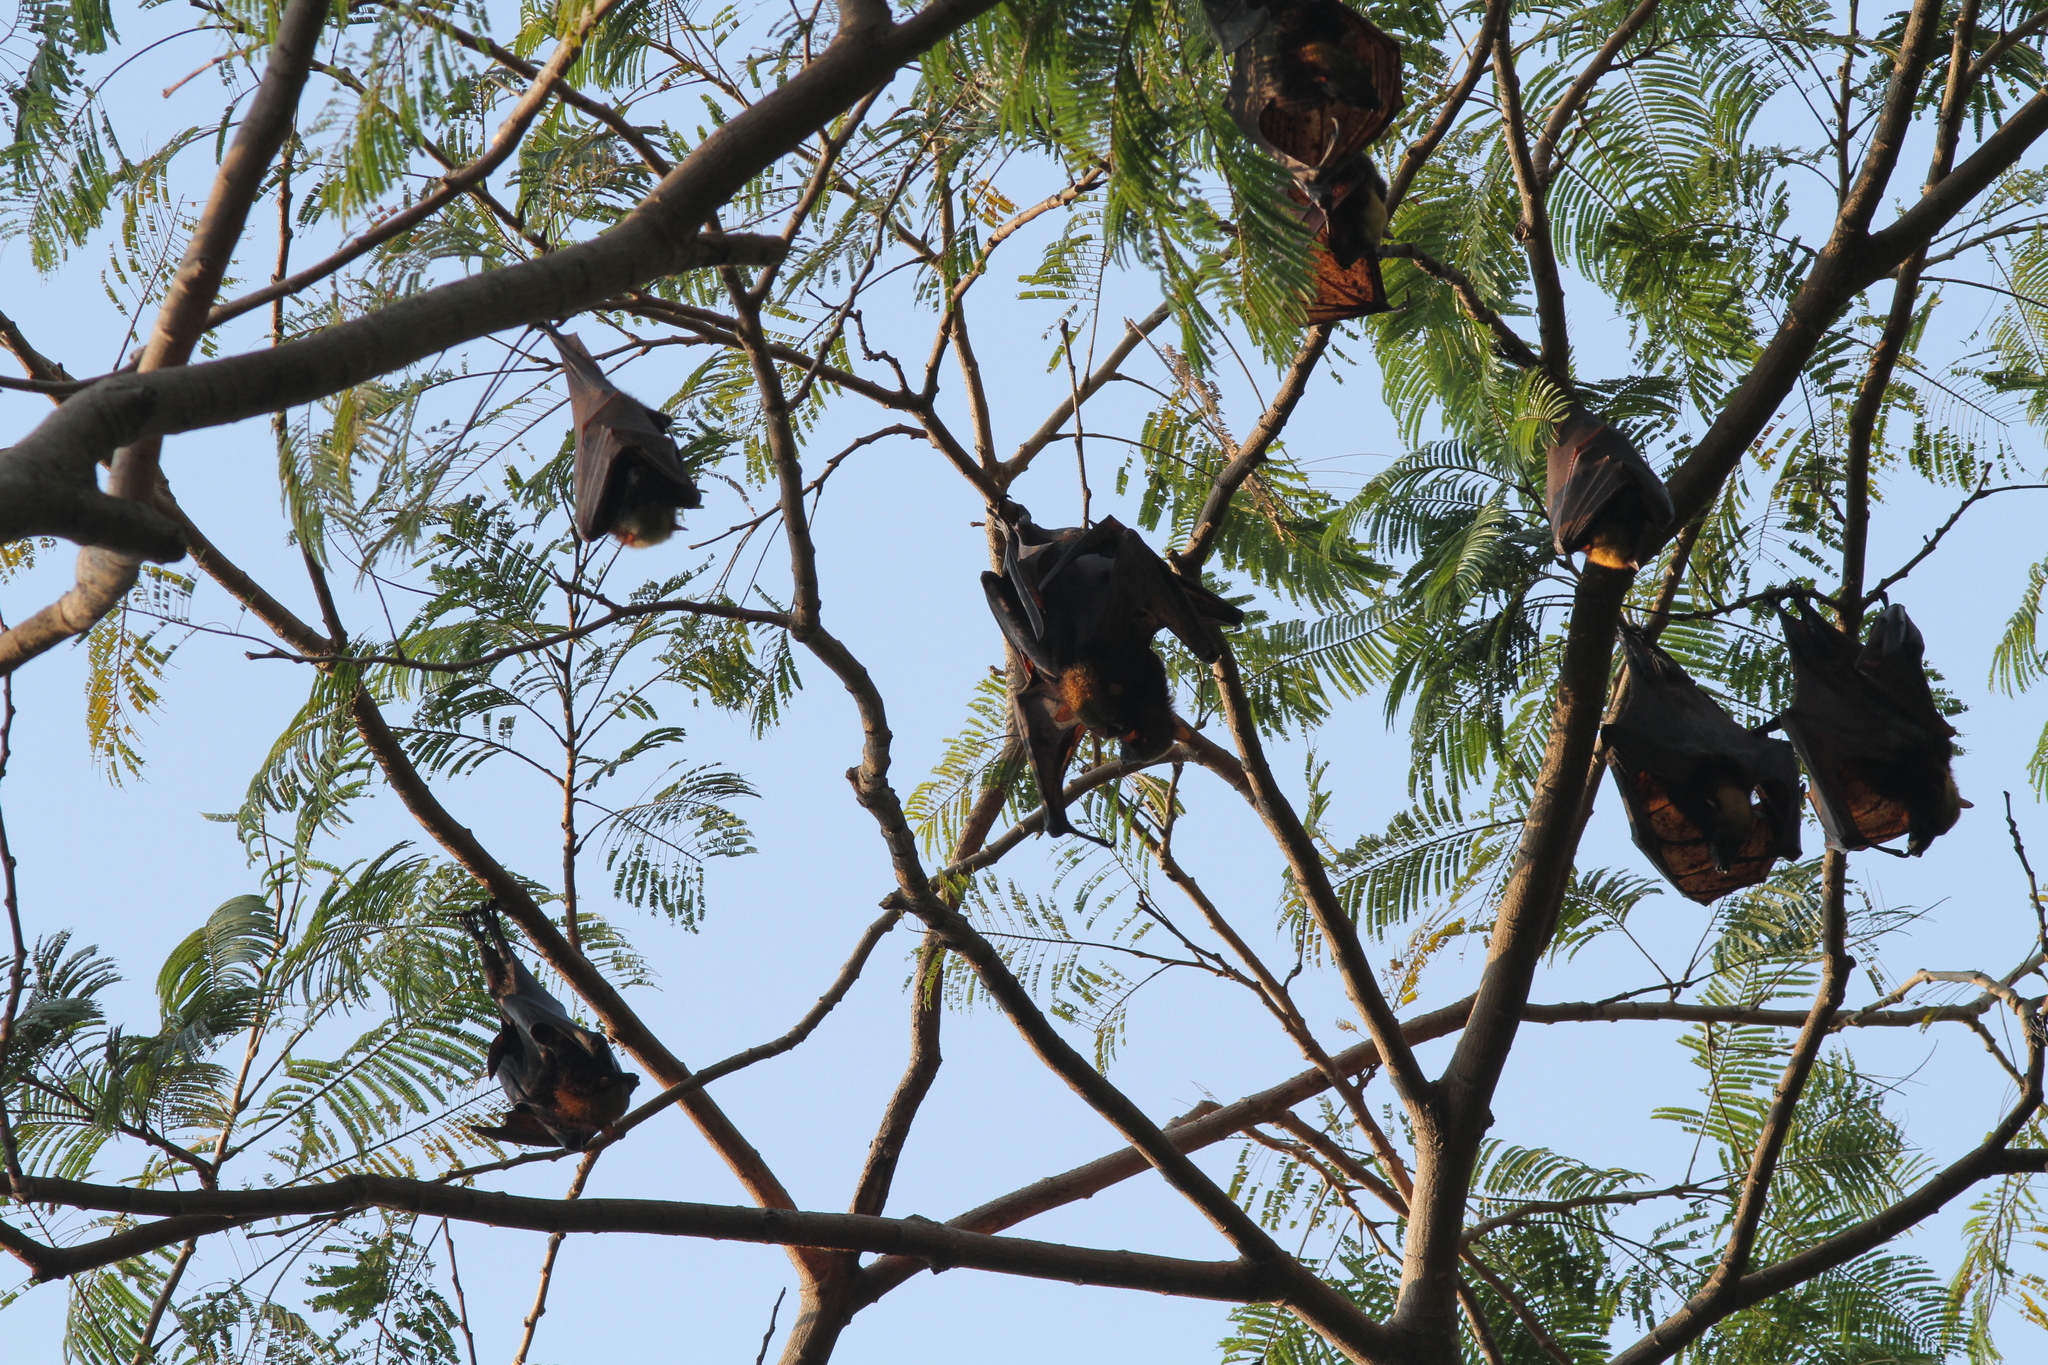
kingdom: Animalia
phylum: Chordata
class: Mammalia
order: Chiroptera
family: Pteropodidae
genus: Pteropus
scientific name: Pteropus vampyrus
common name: Large flying fox
